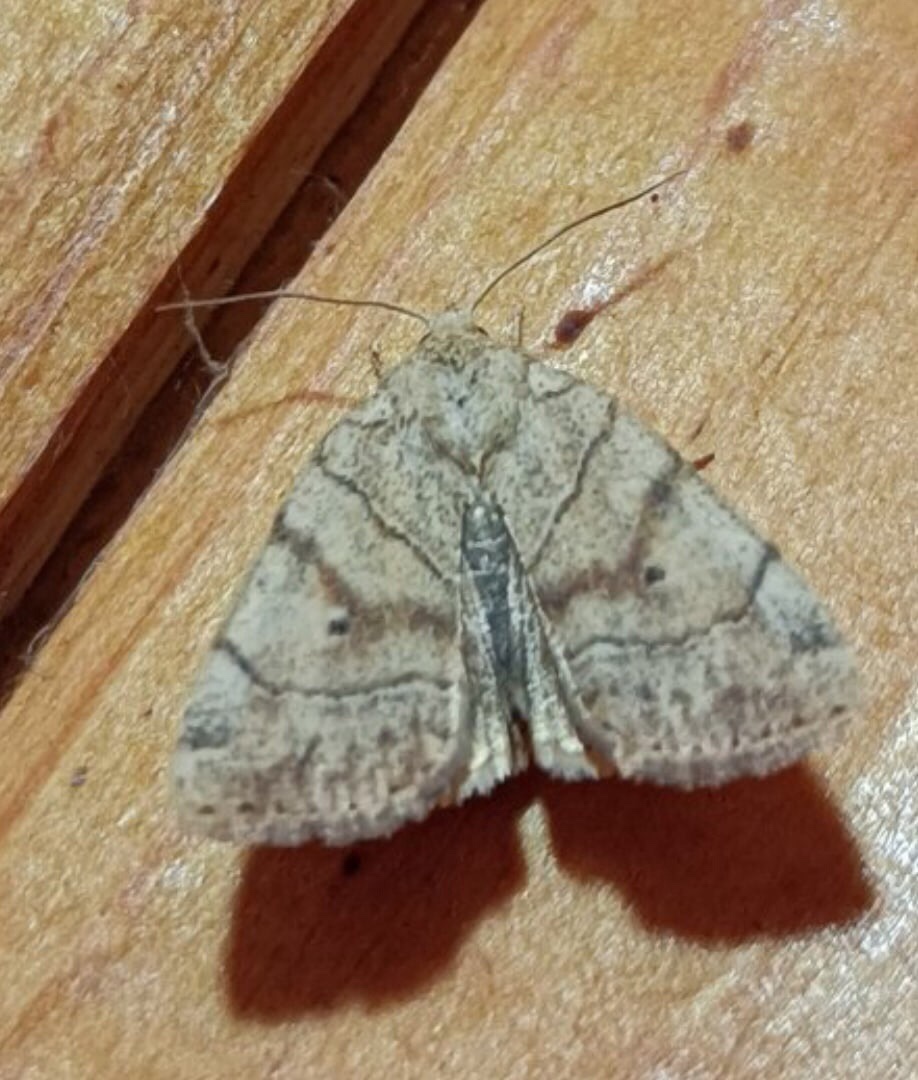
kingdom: Animalia
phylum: Arthropoda
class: Insecta
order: Lepidoptera
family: Noctuidae
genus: Cosmia
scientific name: Cosmia trapezina
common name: Dun-bar
